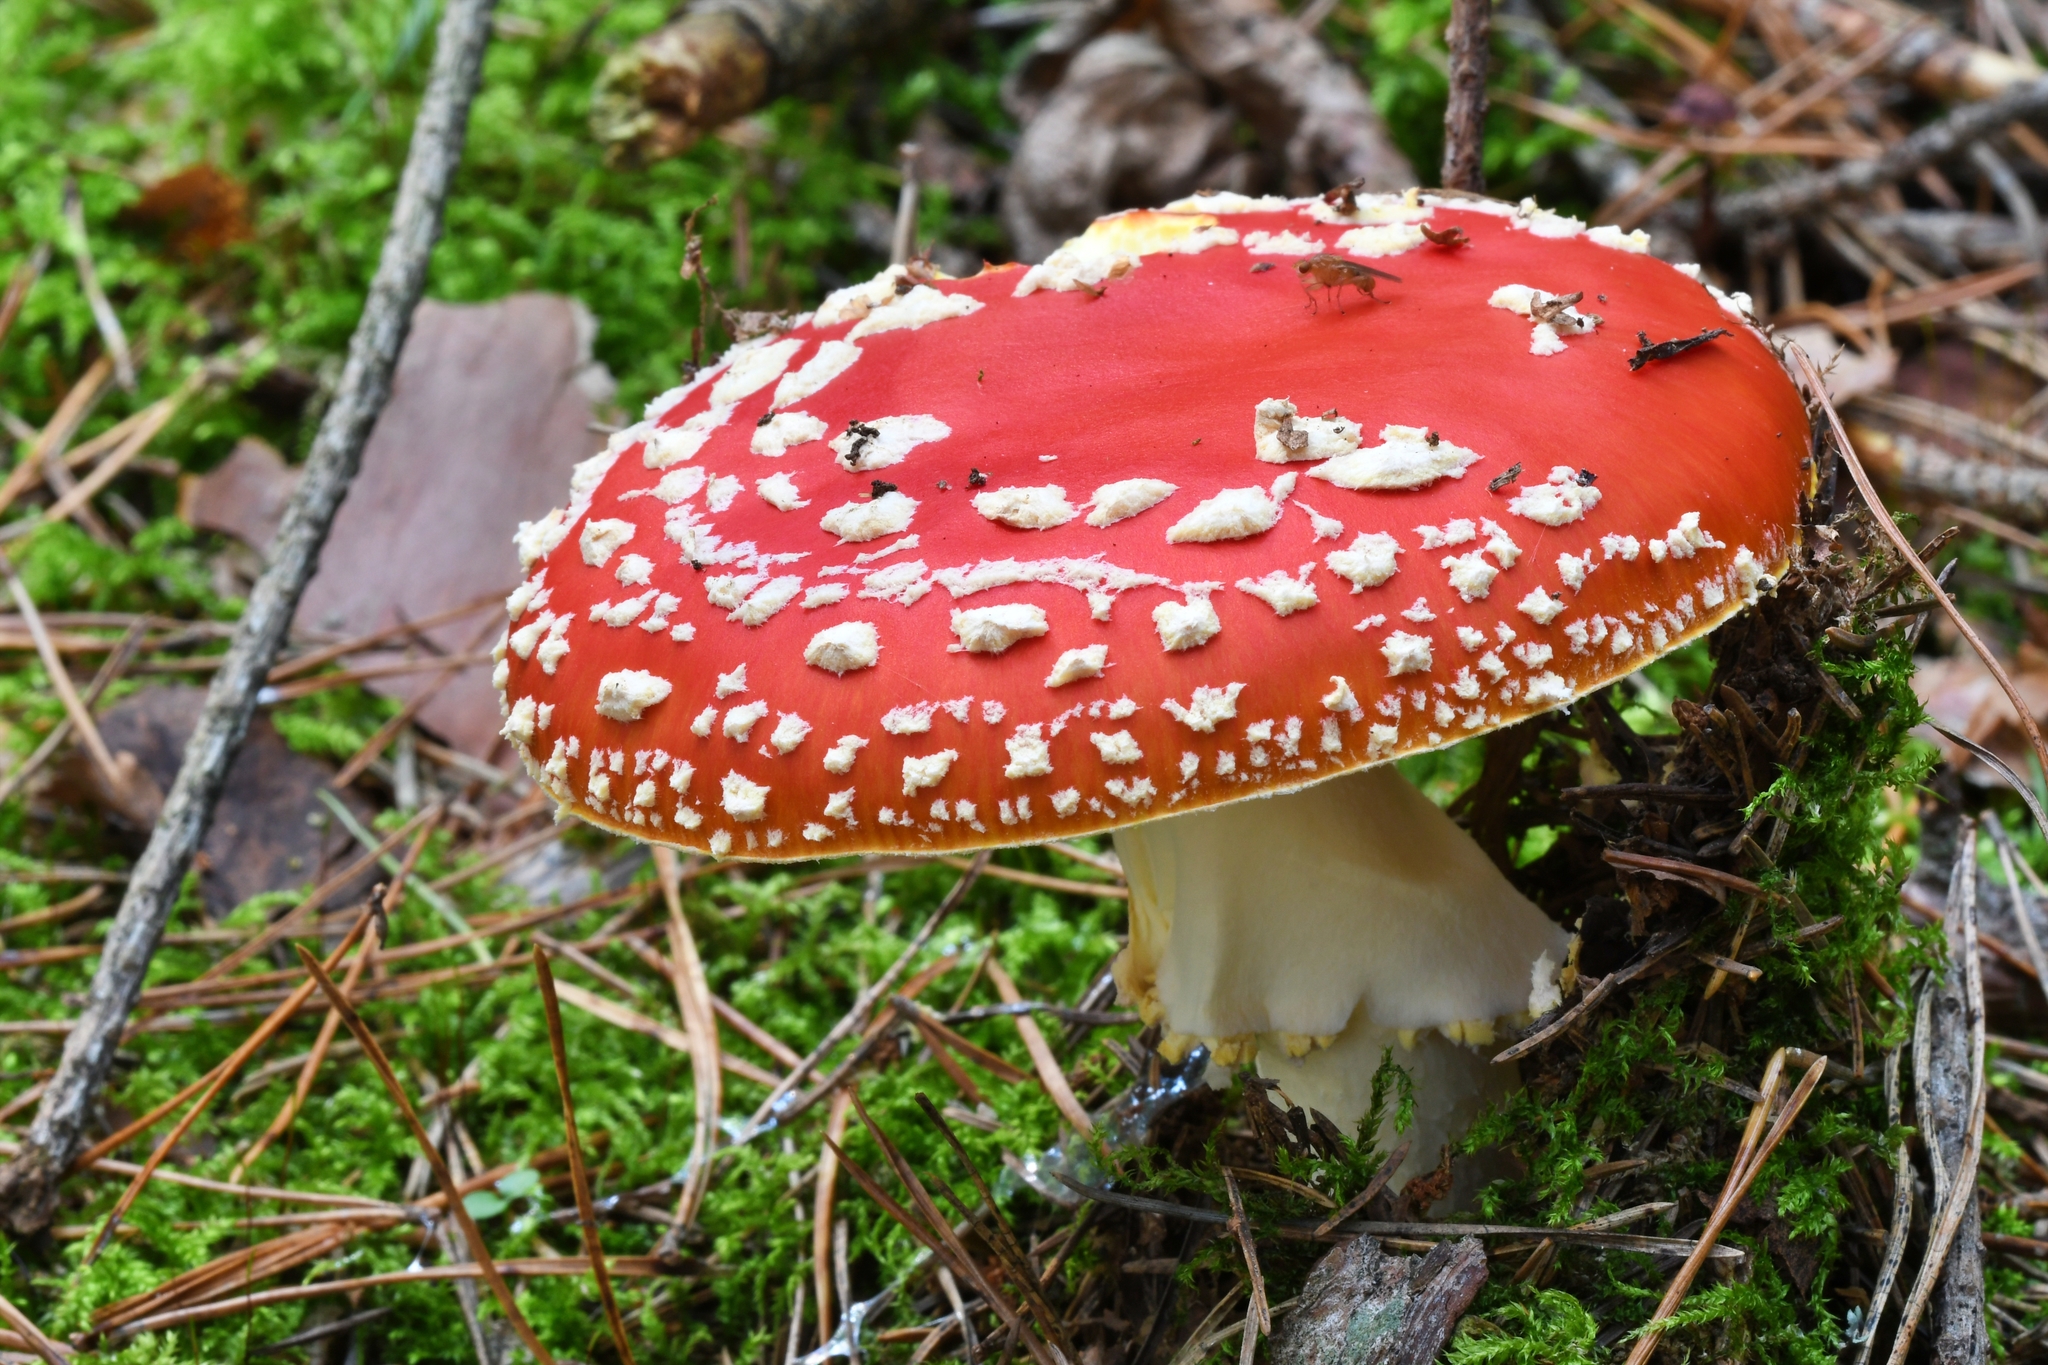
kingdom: Fungi
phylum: Basidiomycota
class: Agaricomycetes
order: Agaricales
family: Amanitaceae
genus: Amanita
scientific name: Amanita muscaria
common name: Fly agaric
